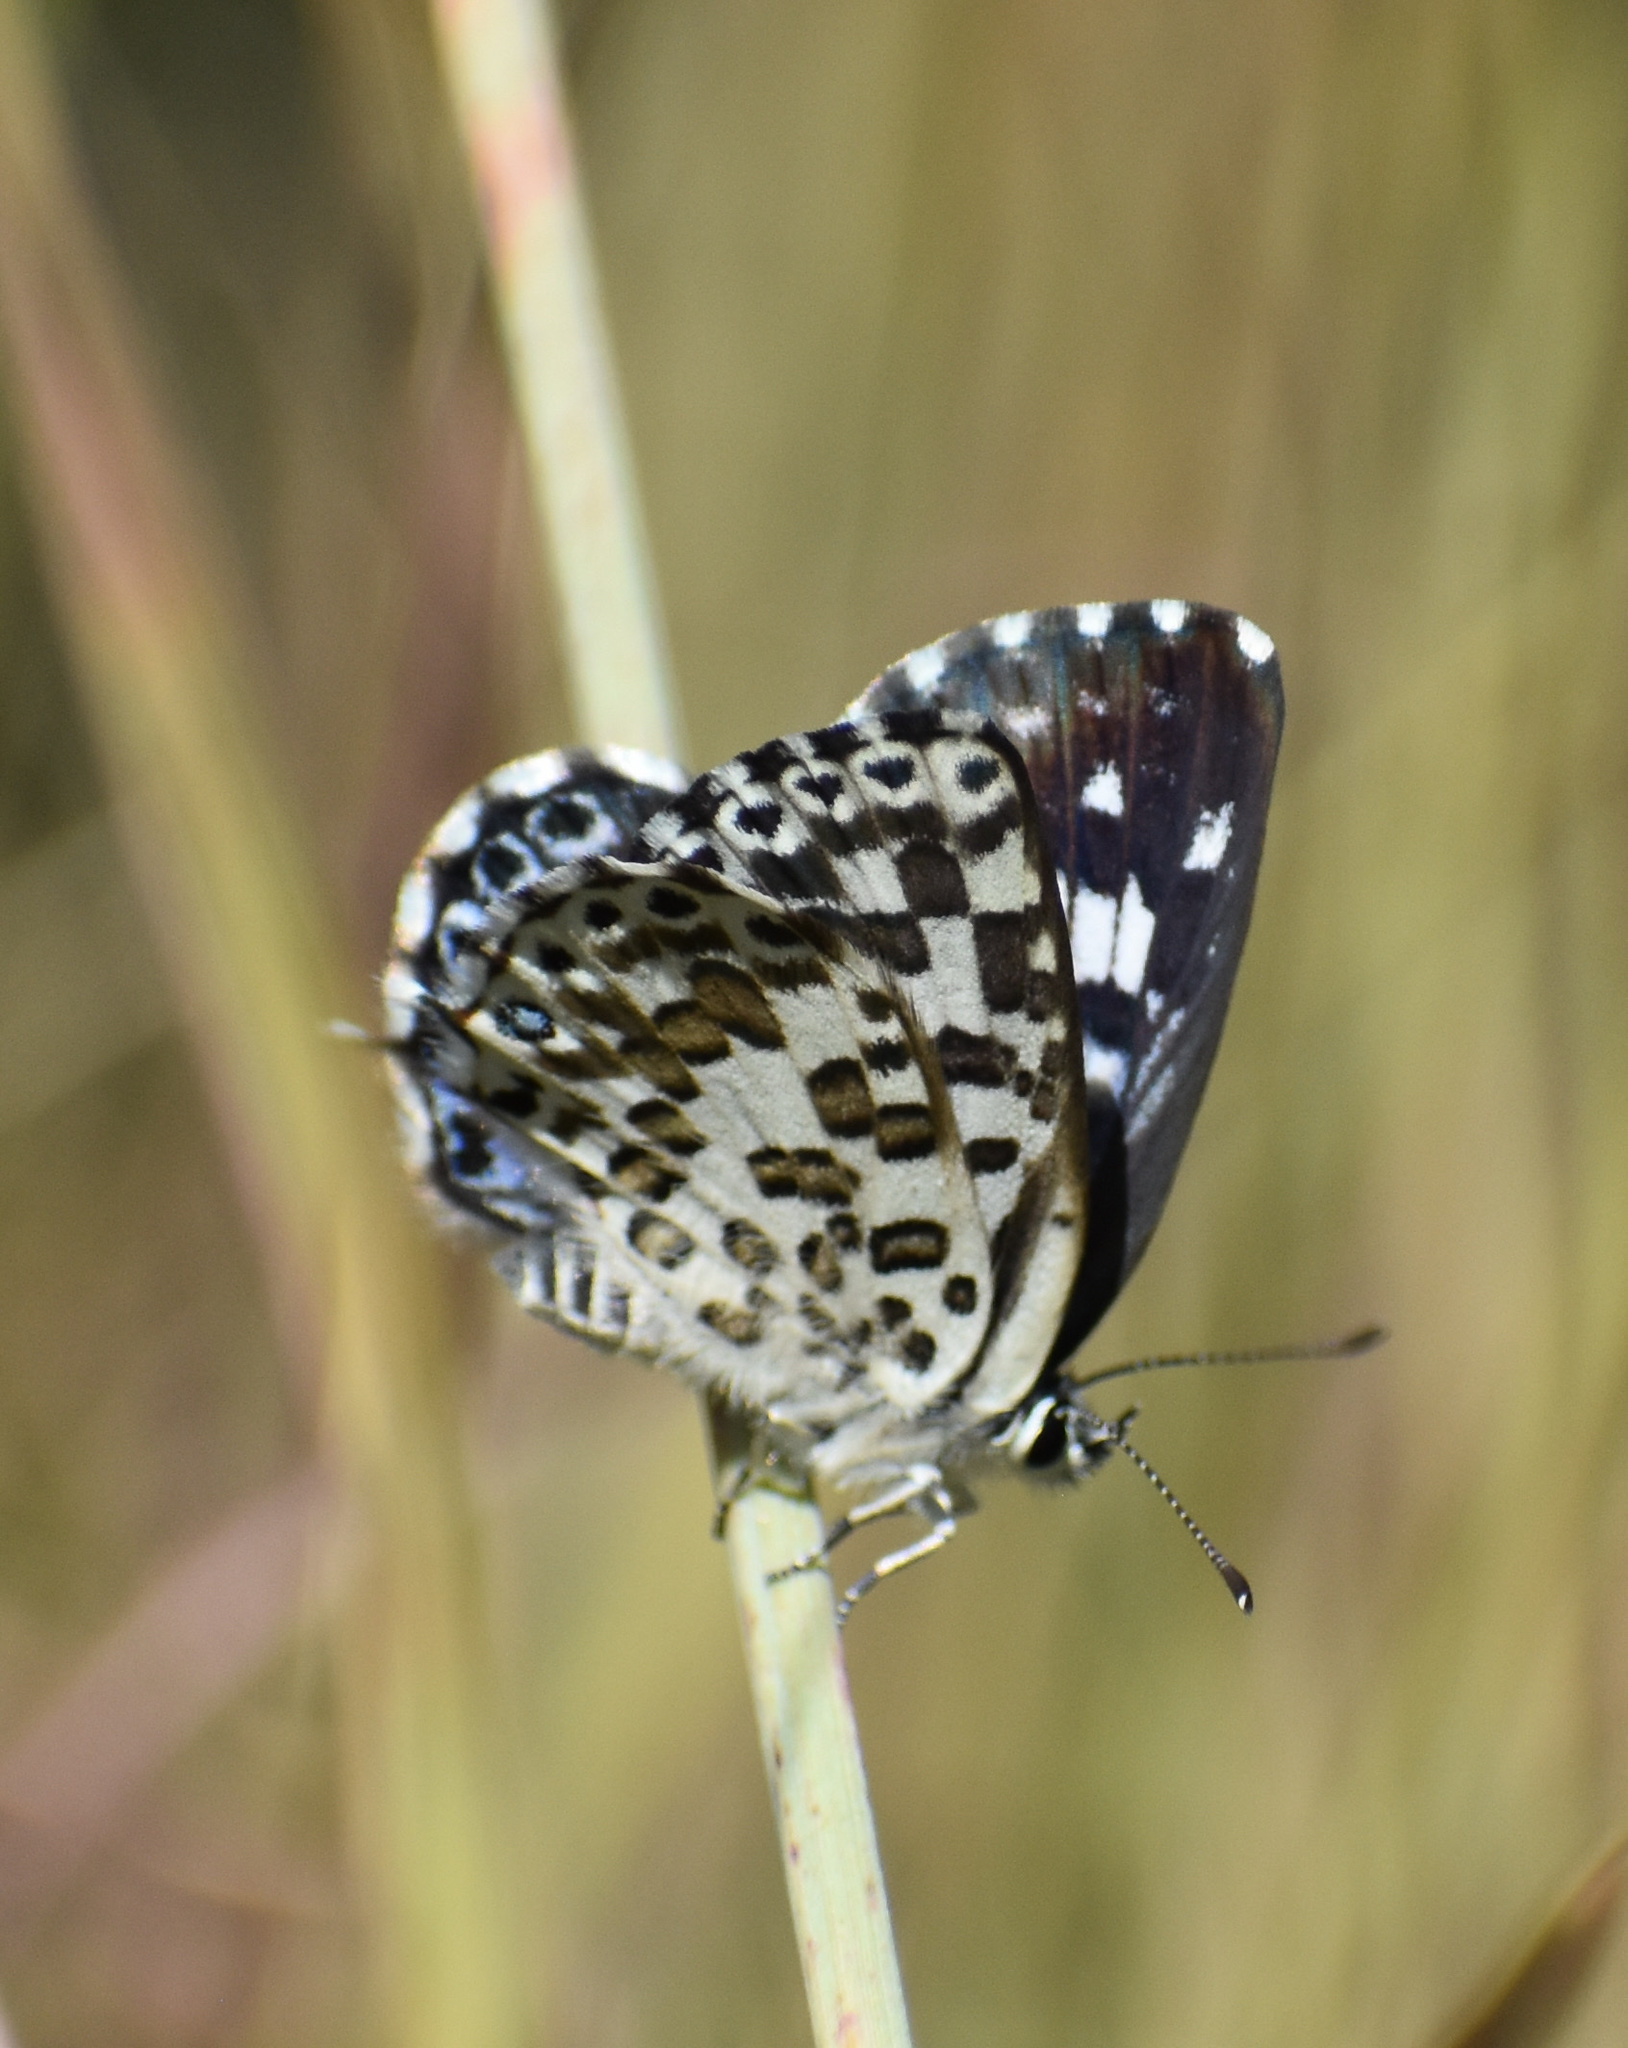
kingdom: Animalia
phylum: Arthropoda
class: Insecta
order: Lepidoptera
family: Lycaenidae
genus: Tarucus
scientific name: Tarucus bowkeri
